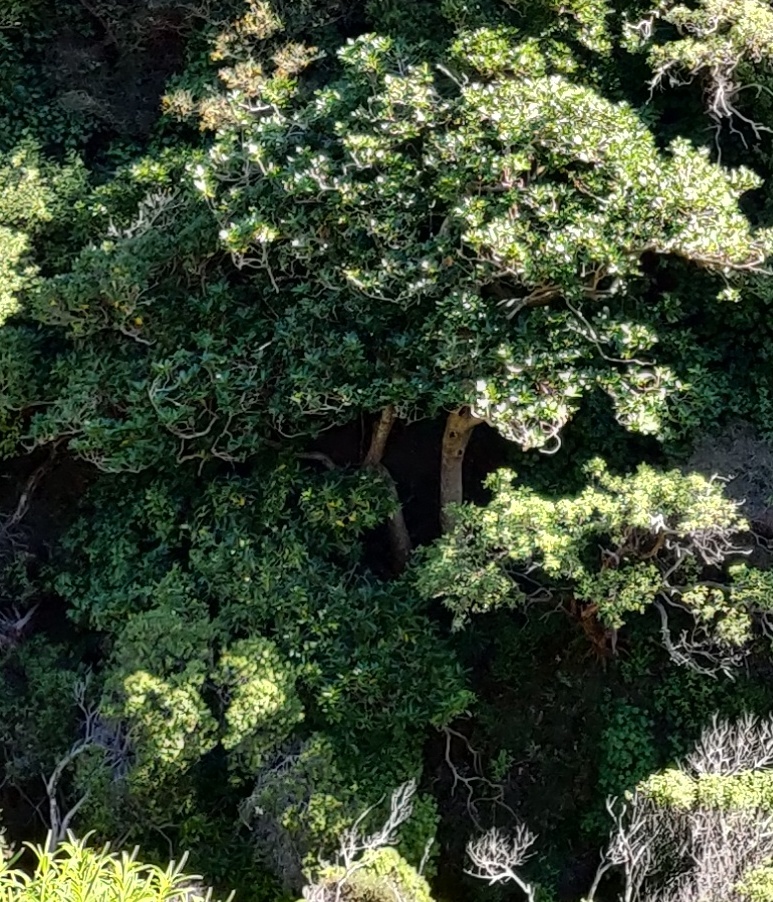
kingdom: Plantae
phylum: Tracheophyta
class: Magnoliopsida
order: Cucurbitales
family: Corynocarpaceae
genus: Corynocarpus
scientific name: Corynocarpus laevigatus
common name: New zealand laurel
